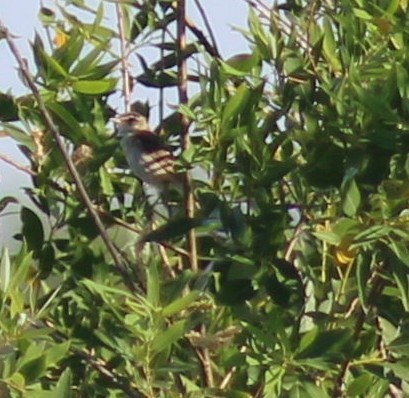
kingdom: Animalia
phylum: Chordata
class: Aves
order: Passeriformes
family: Acrocephalidae
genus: Acrocephalus
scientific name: Acrocephalus schoenobaenus
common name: Sedge warbler
